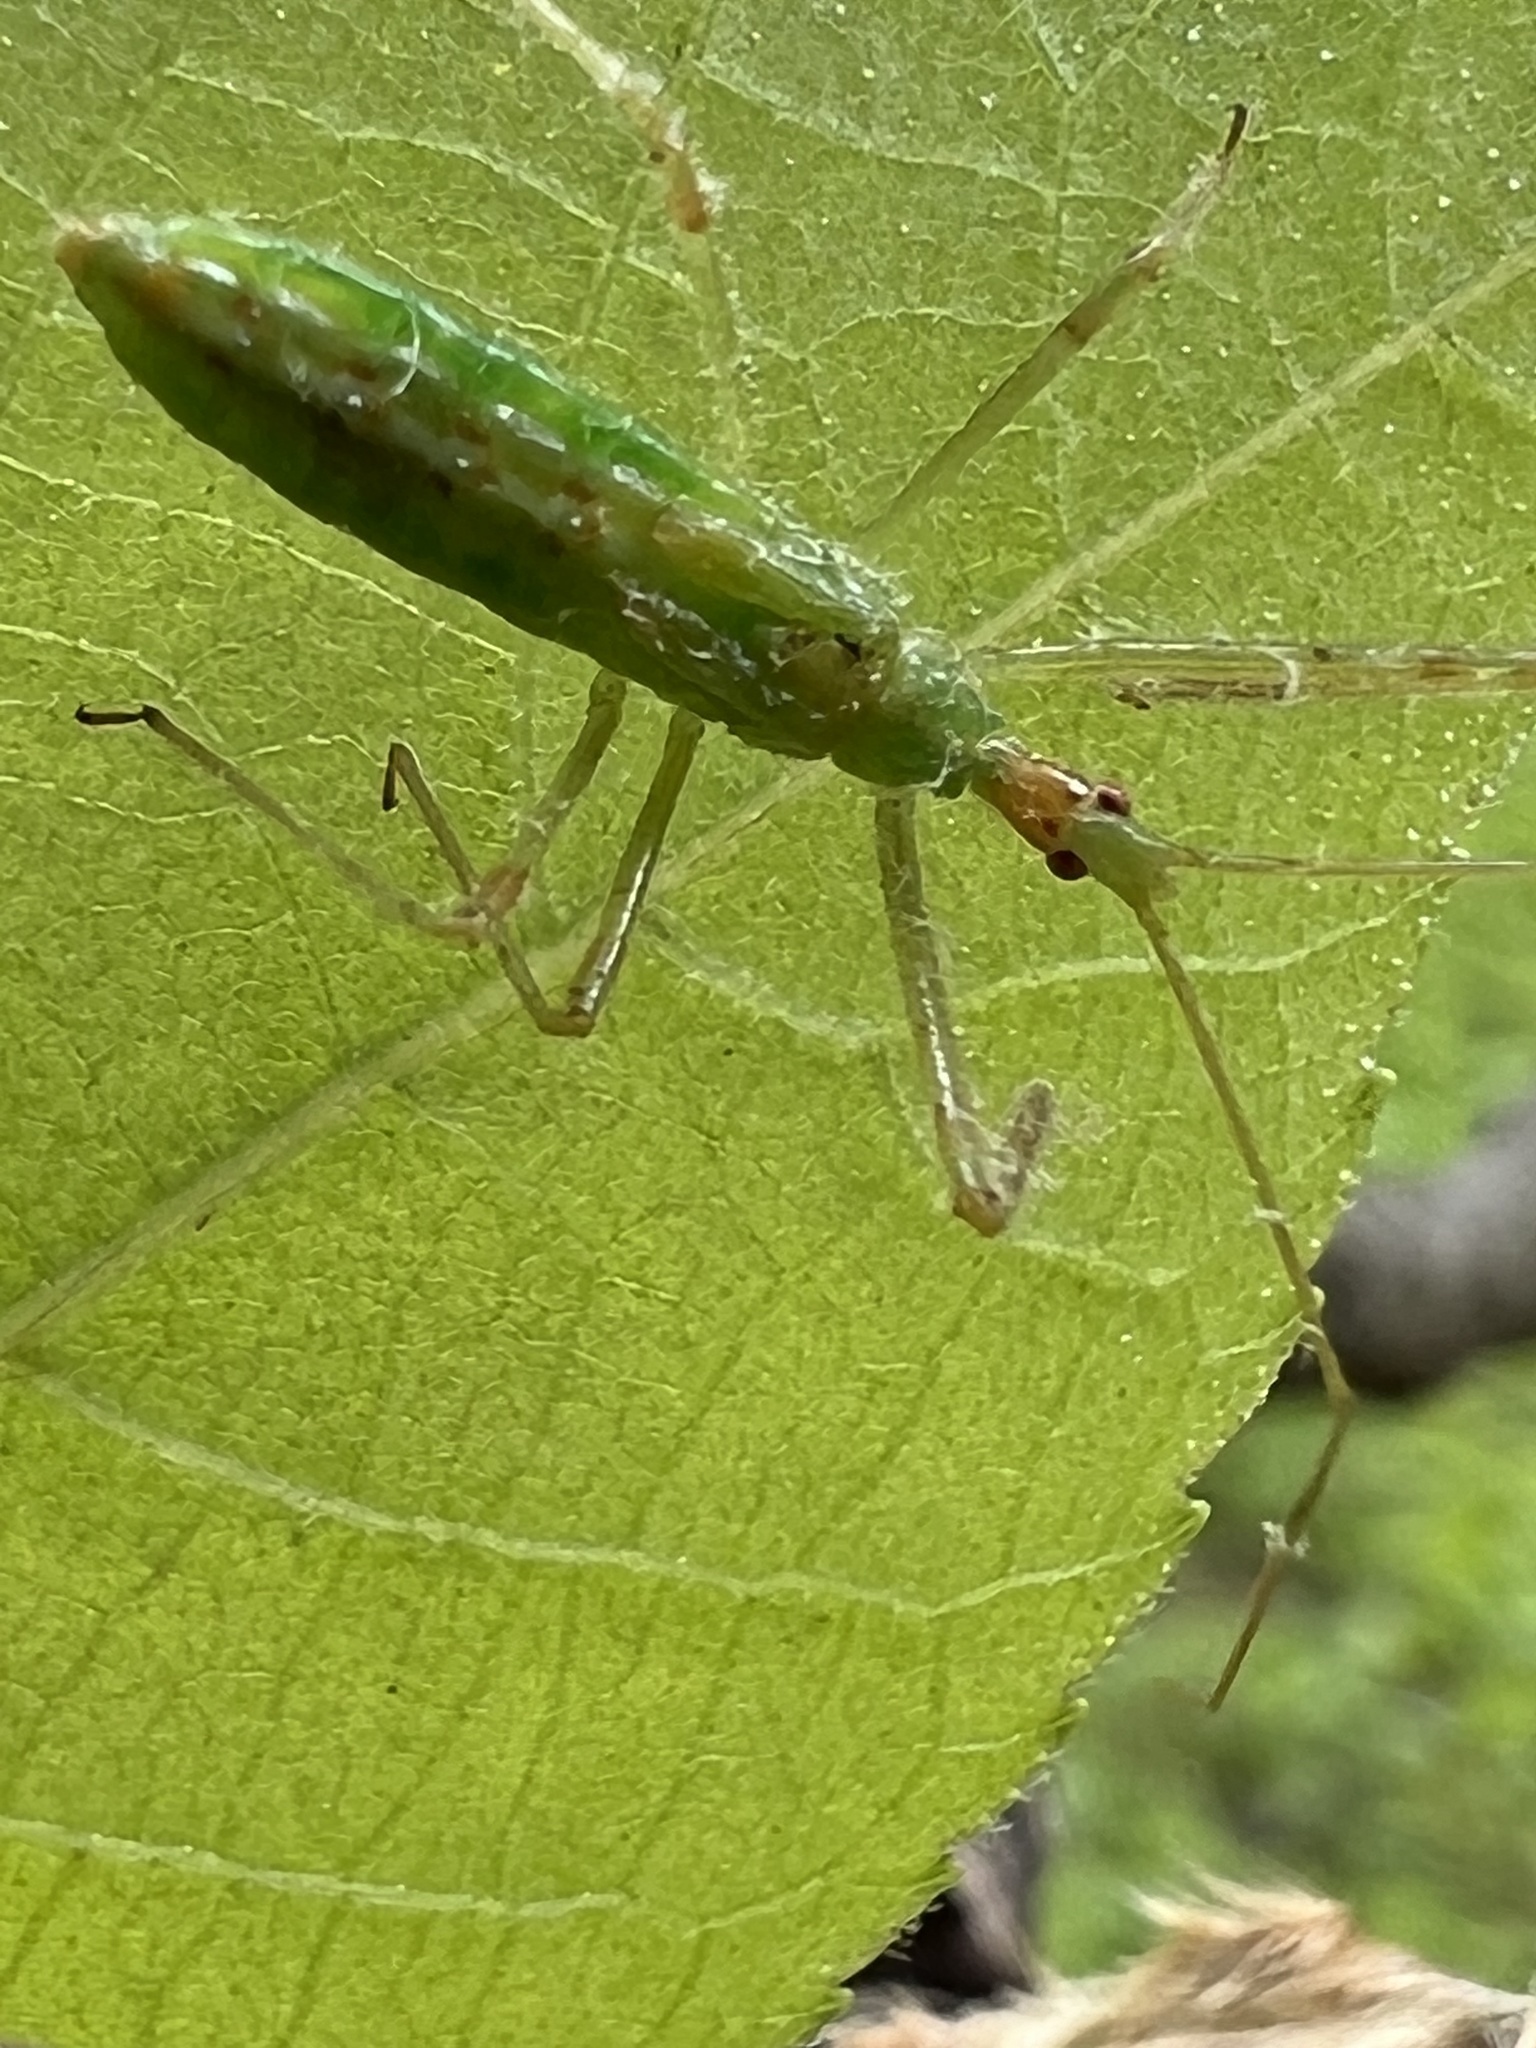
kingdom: Animalia
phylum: Arthropoda
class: Insecta
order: Hemiptera
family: Reduviidae
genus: Zelus
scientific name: Zelus luridus
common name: Pale green assassin bug
